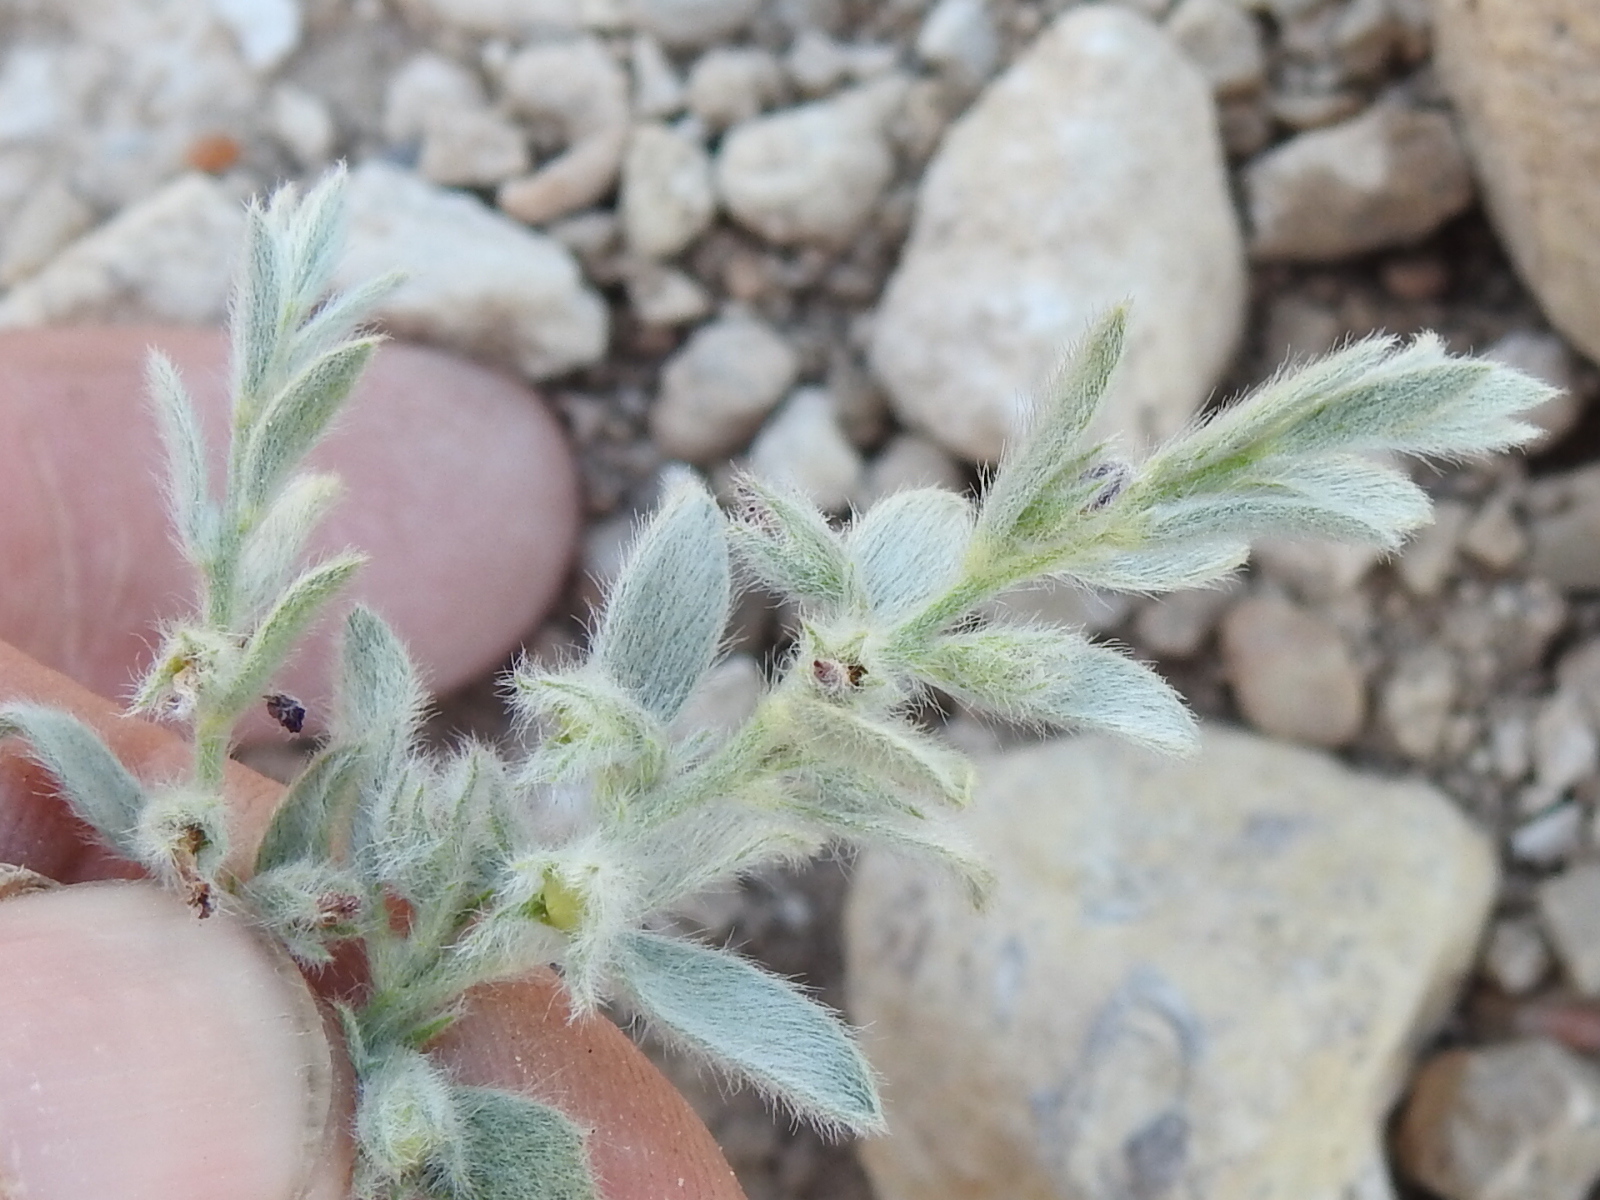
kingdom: Plantae
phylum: Tracheophyta
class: Magnoliopsida
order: Solanales
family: Convolvulaceae
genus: Evolvulus
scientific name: Evolvulus nuttallianus
